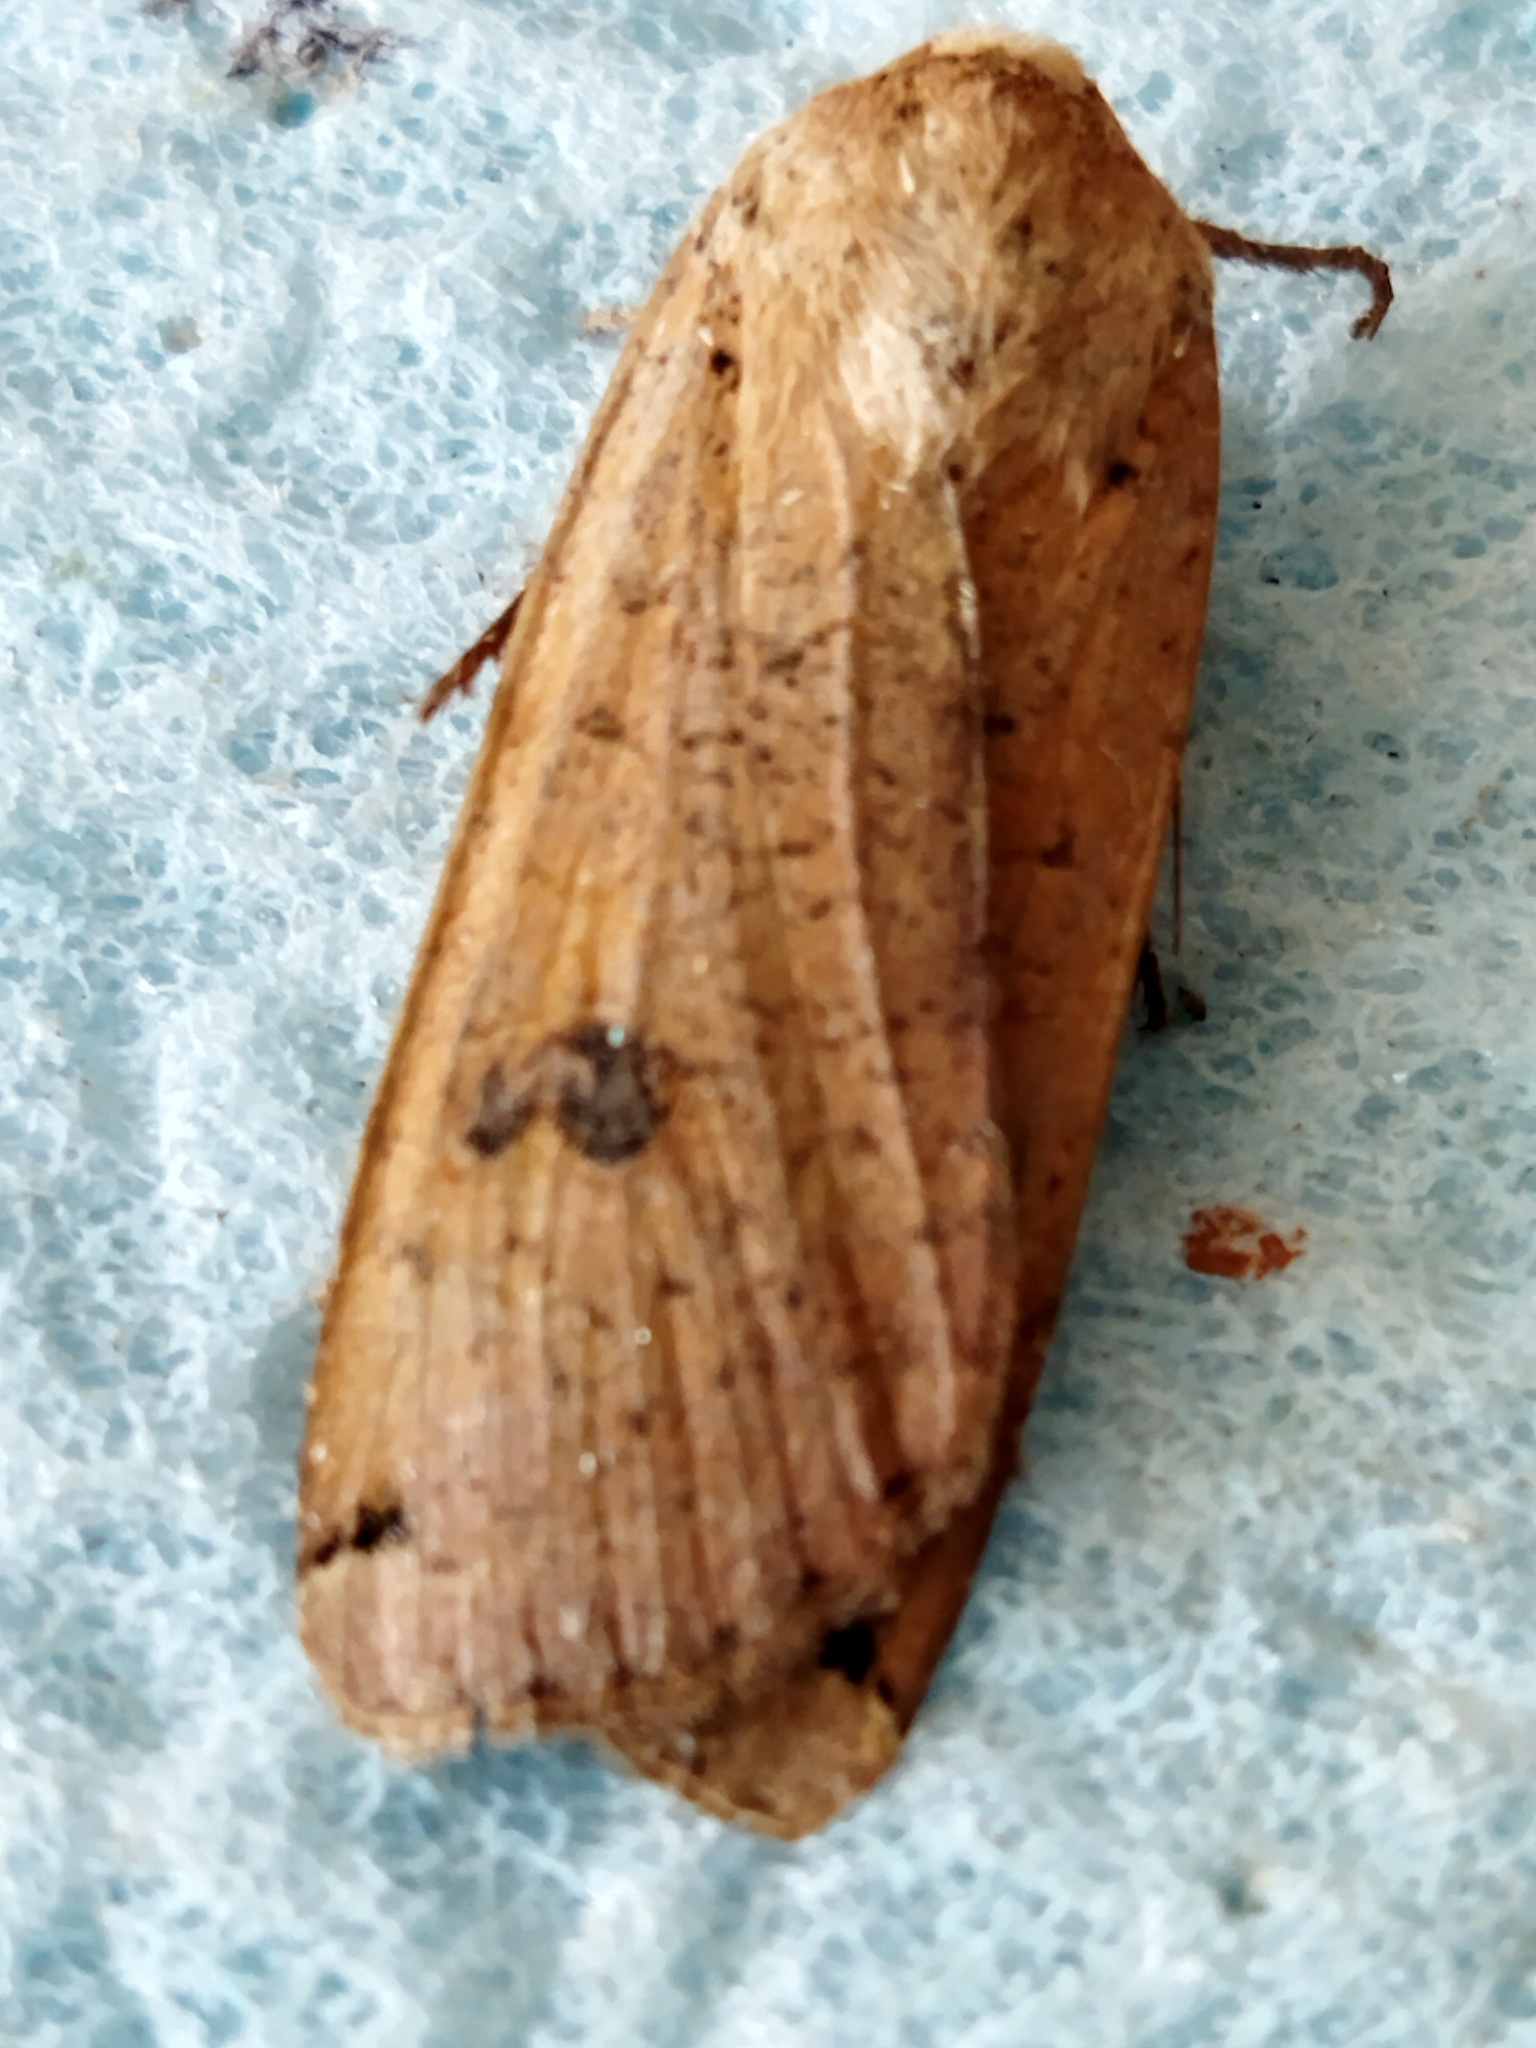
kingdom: Animalia
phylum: Arthropoda
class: Insecta
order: Lepidoptera
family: Noctuidae
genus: Noctua
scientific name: Noctua pronuba
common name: Large yellow underwing
